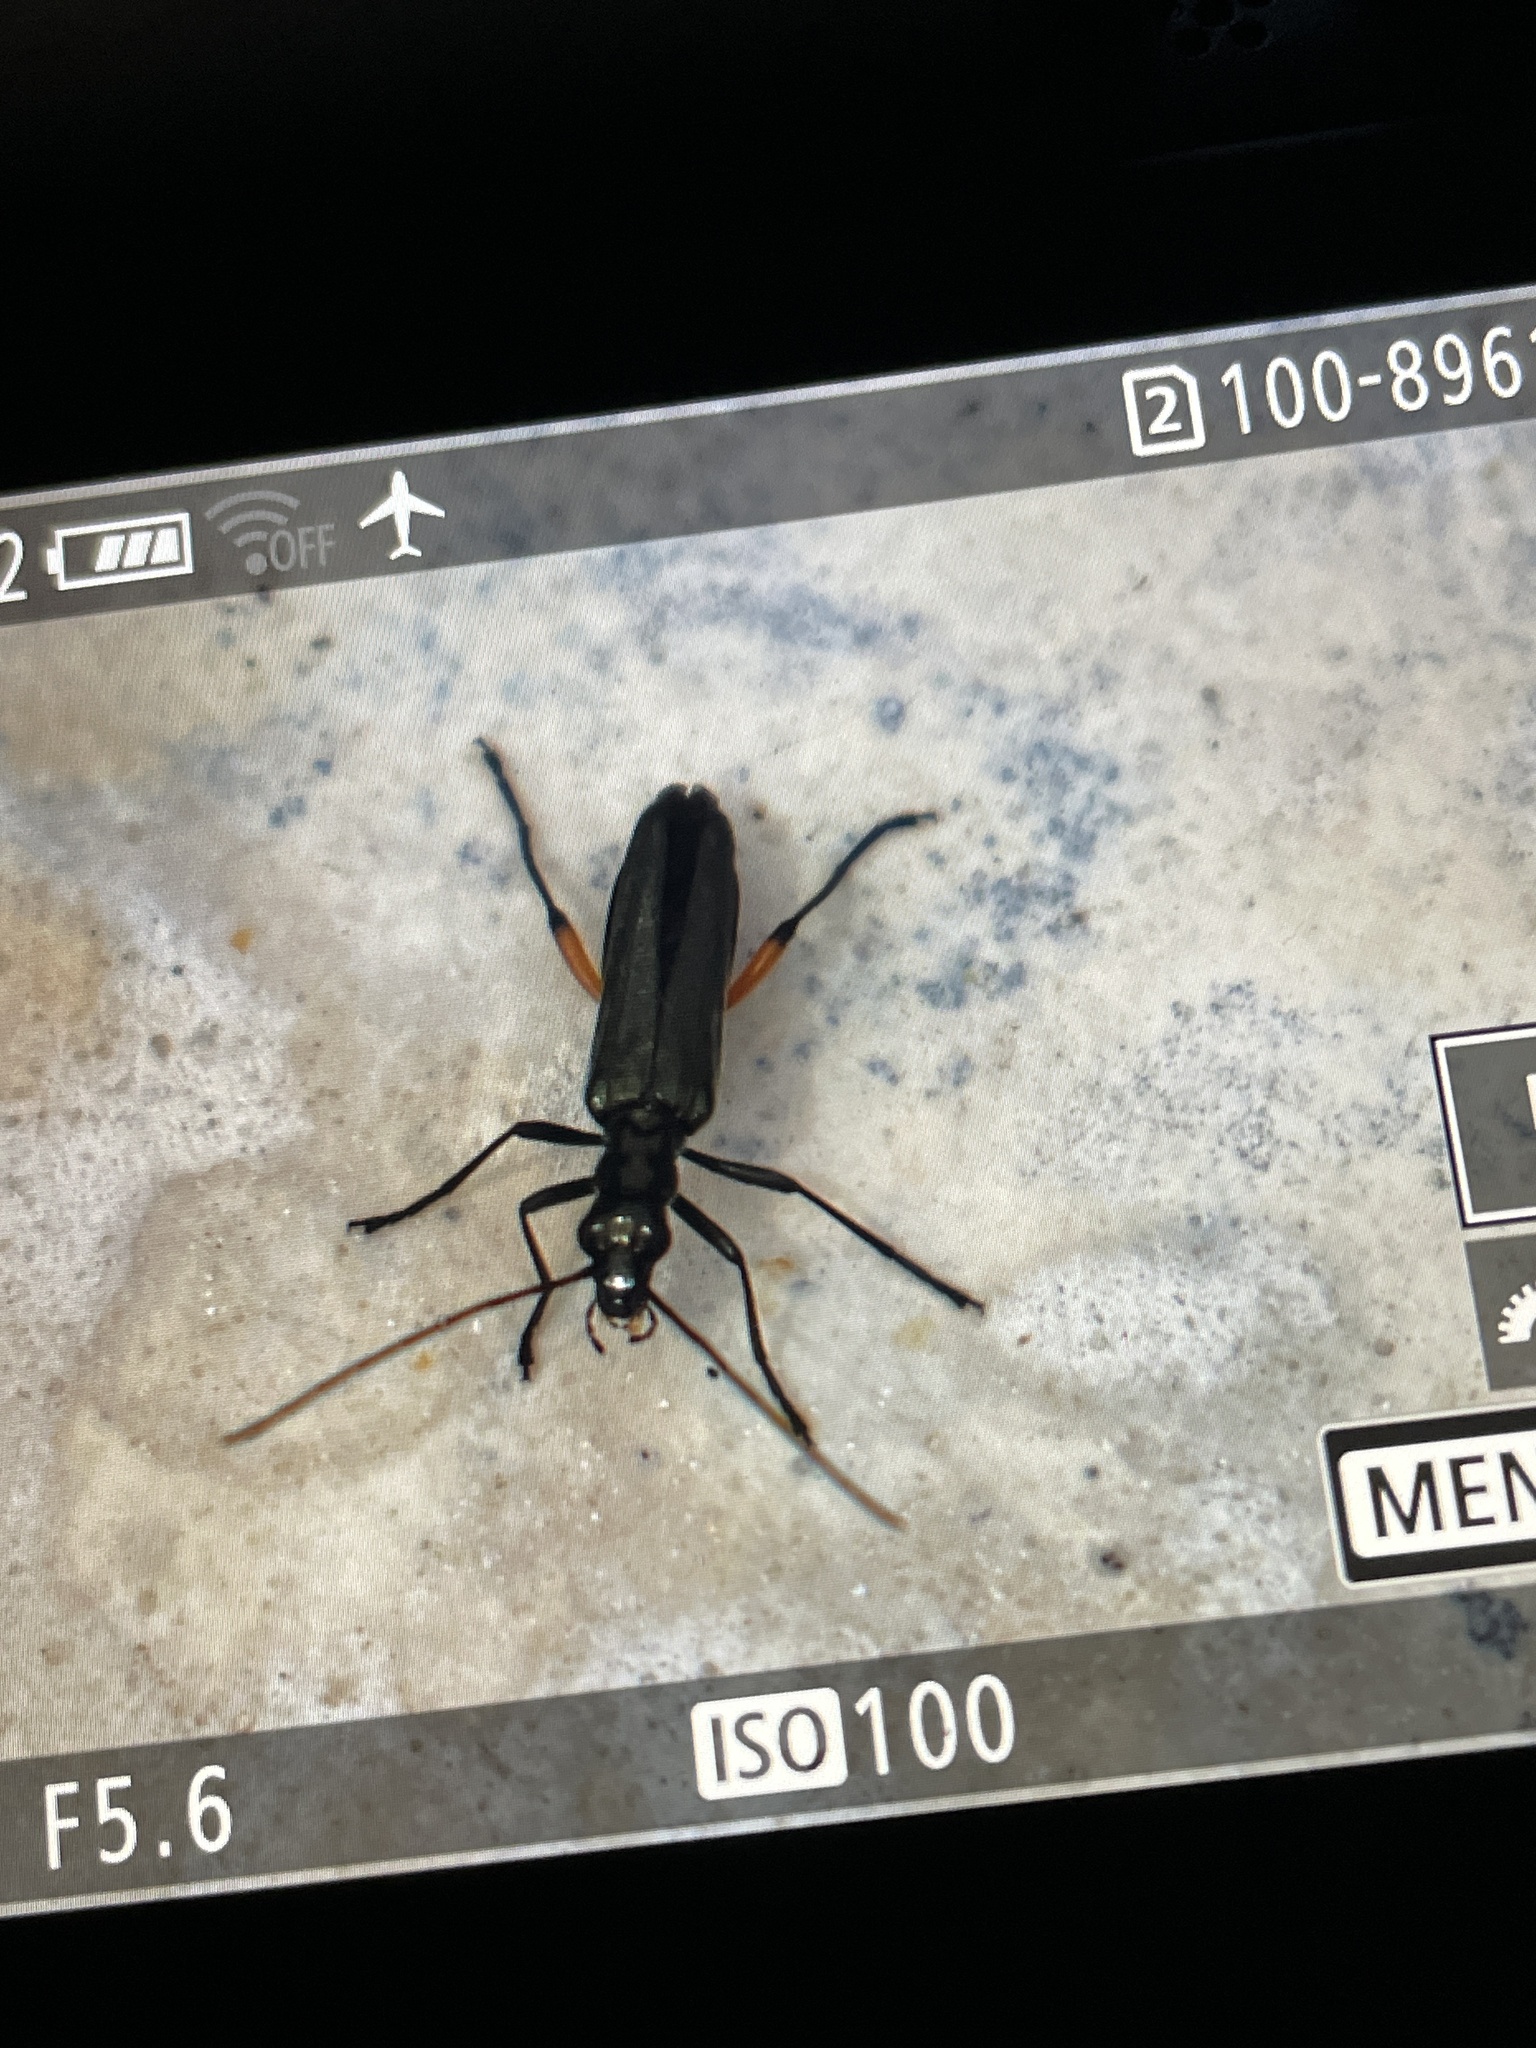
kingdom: Animalia
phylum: Arthropoda
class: Insecta
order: Coleoptera
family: Oedemeridae
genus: Oedemera
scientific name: Oedemera rufofemorata
